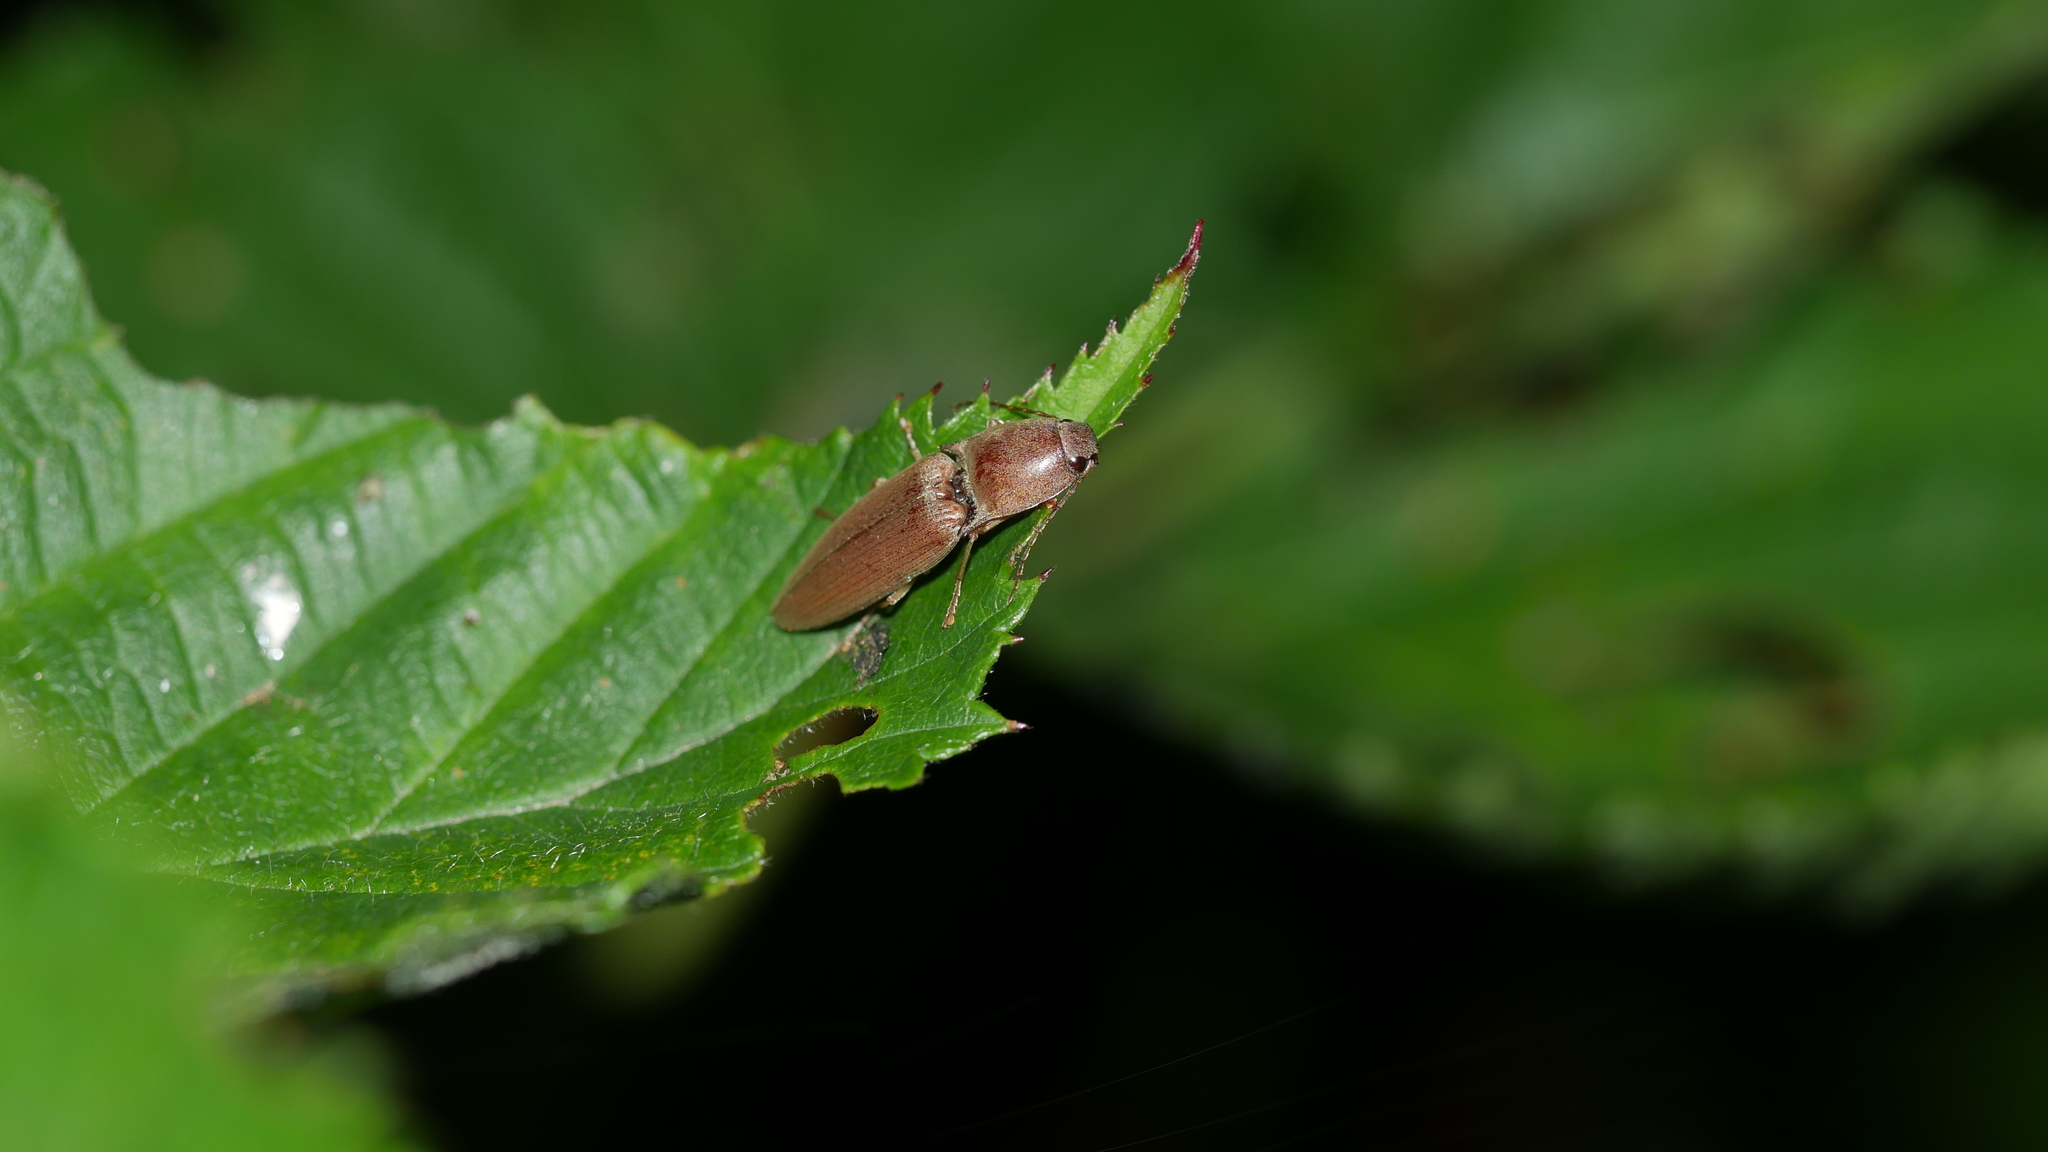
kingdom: Animalia
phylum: Arthropoda
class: Insecta
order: Coleoptera
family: Elateridae
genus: Monocrepidius
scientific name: Monocrepidius lividus
